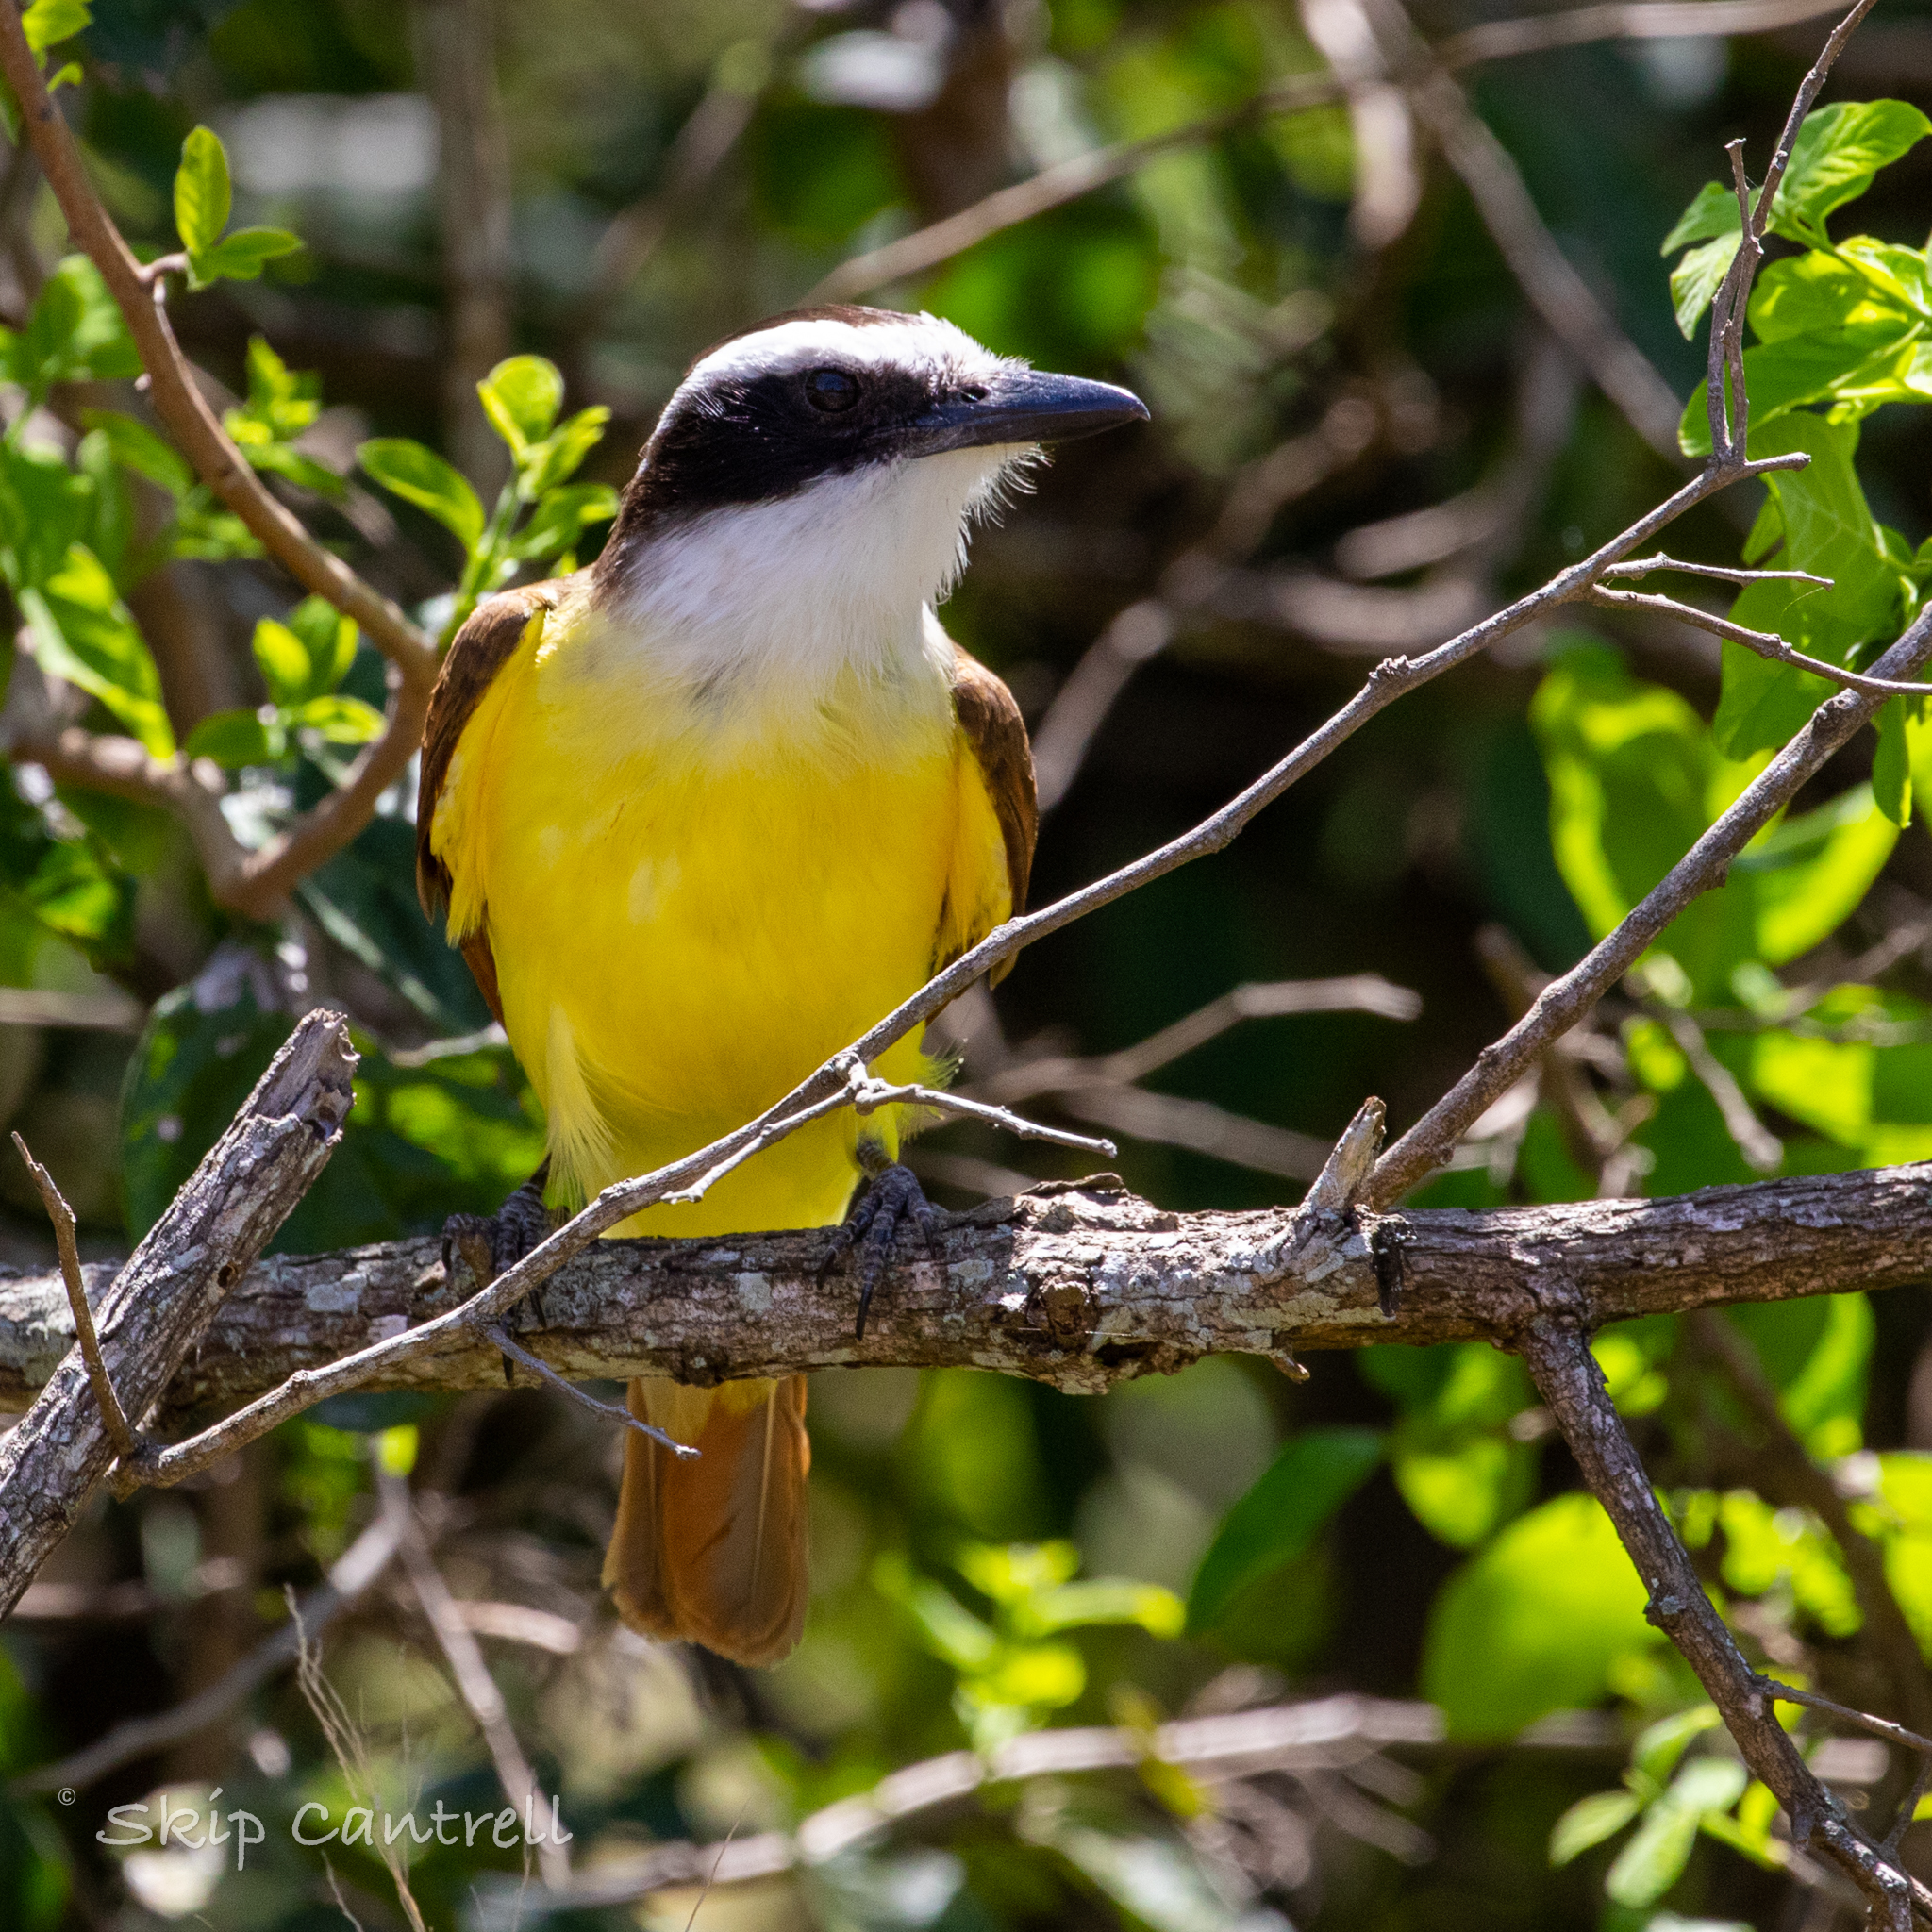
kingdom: Animalia
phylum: Chordata
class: Aves
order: Passeriformes
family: Tyrannidae
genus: Pitangus
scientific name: Pitangus sulphuratus
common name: Great kiskadee
